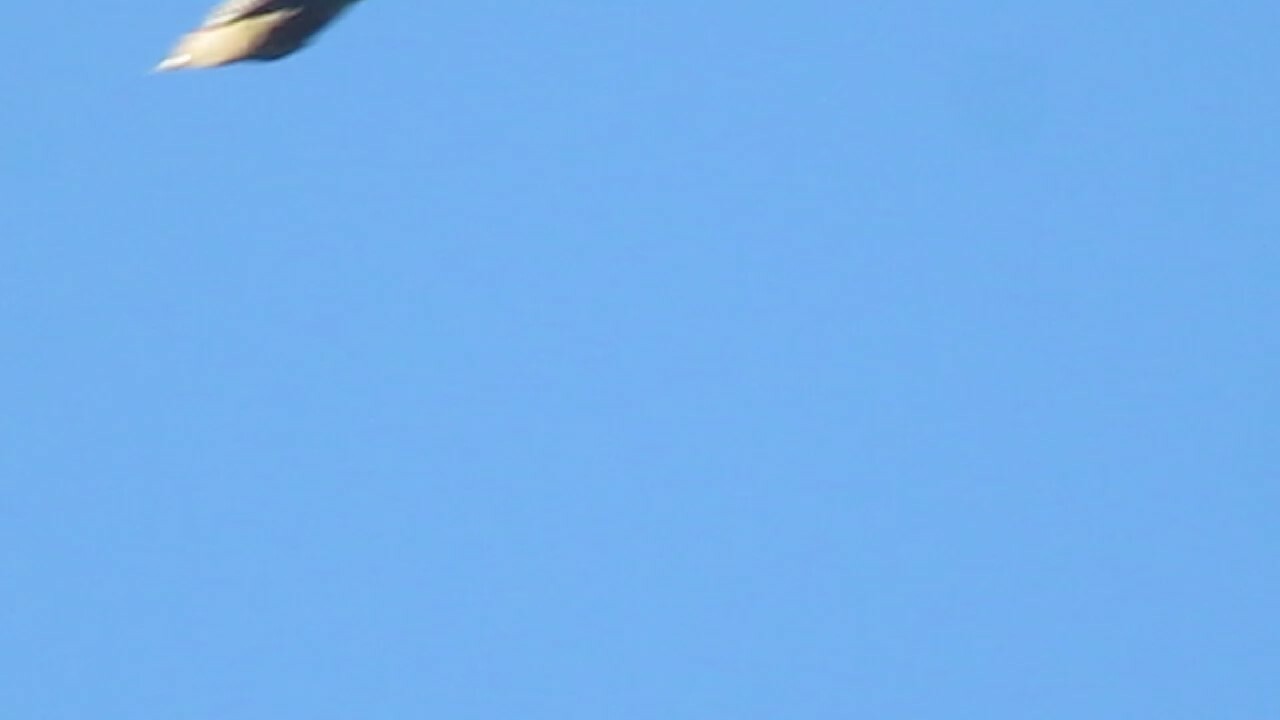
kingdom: Animalia
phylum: Chordata
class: Aves
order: Piciformes
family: Picidae
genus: Melanerpes
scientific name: Melanerpes carolinus
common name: Red-bellied woodpecker
